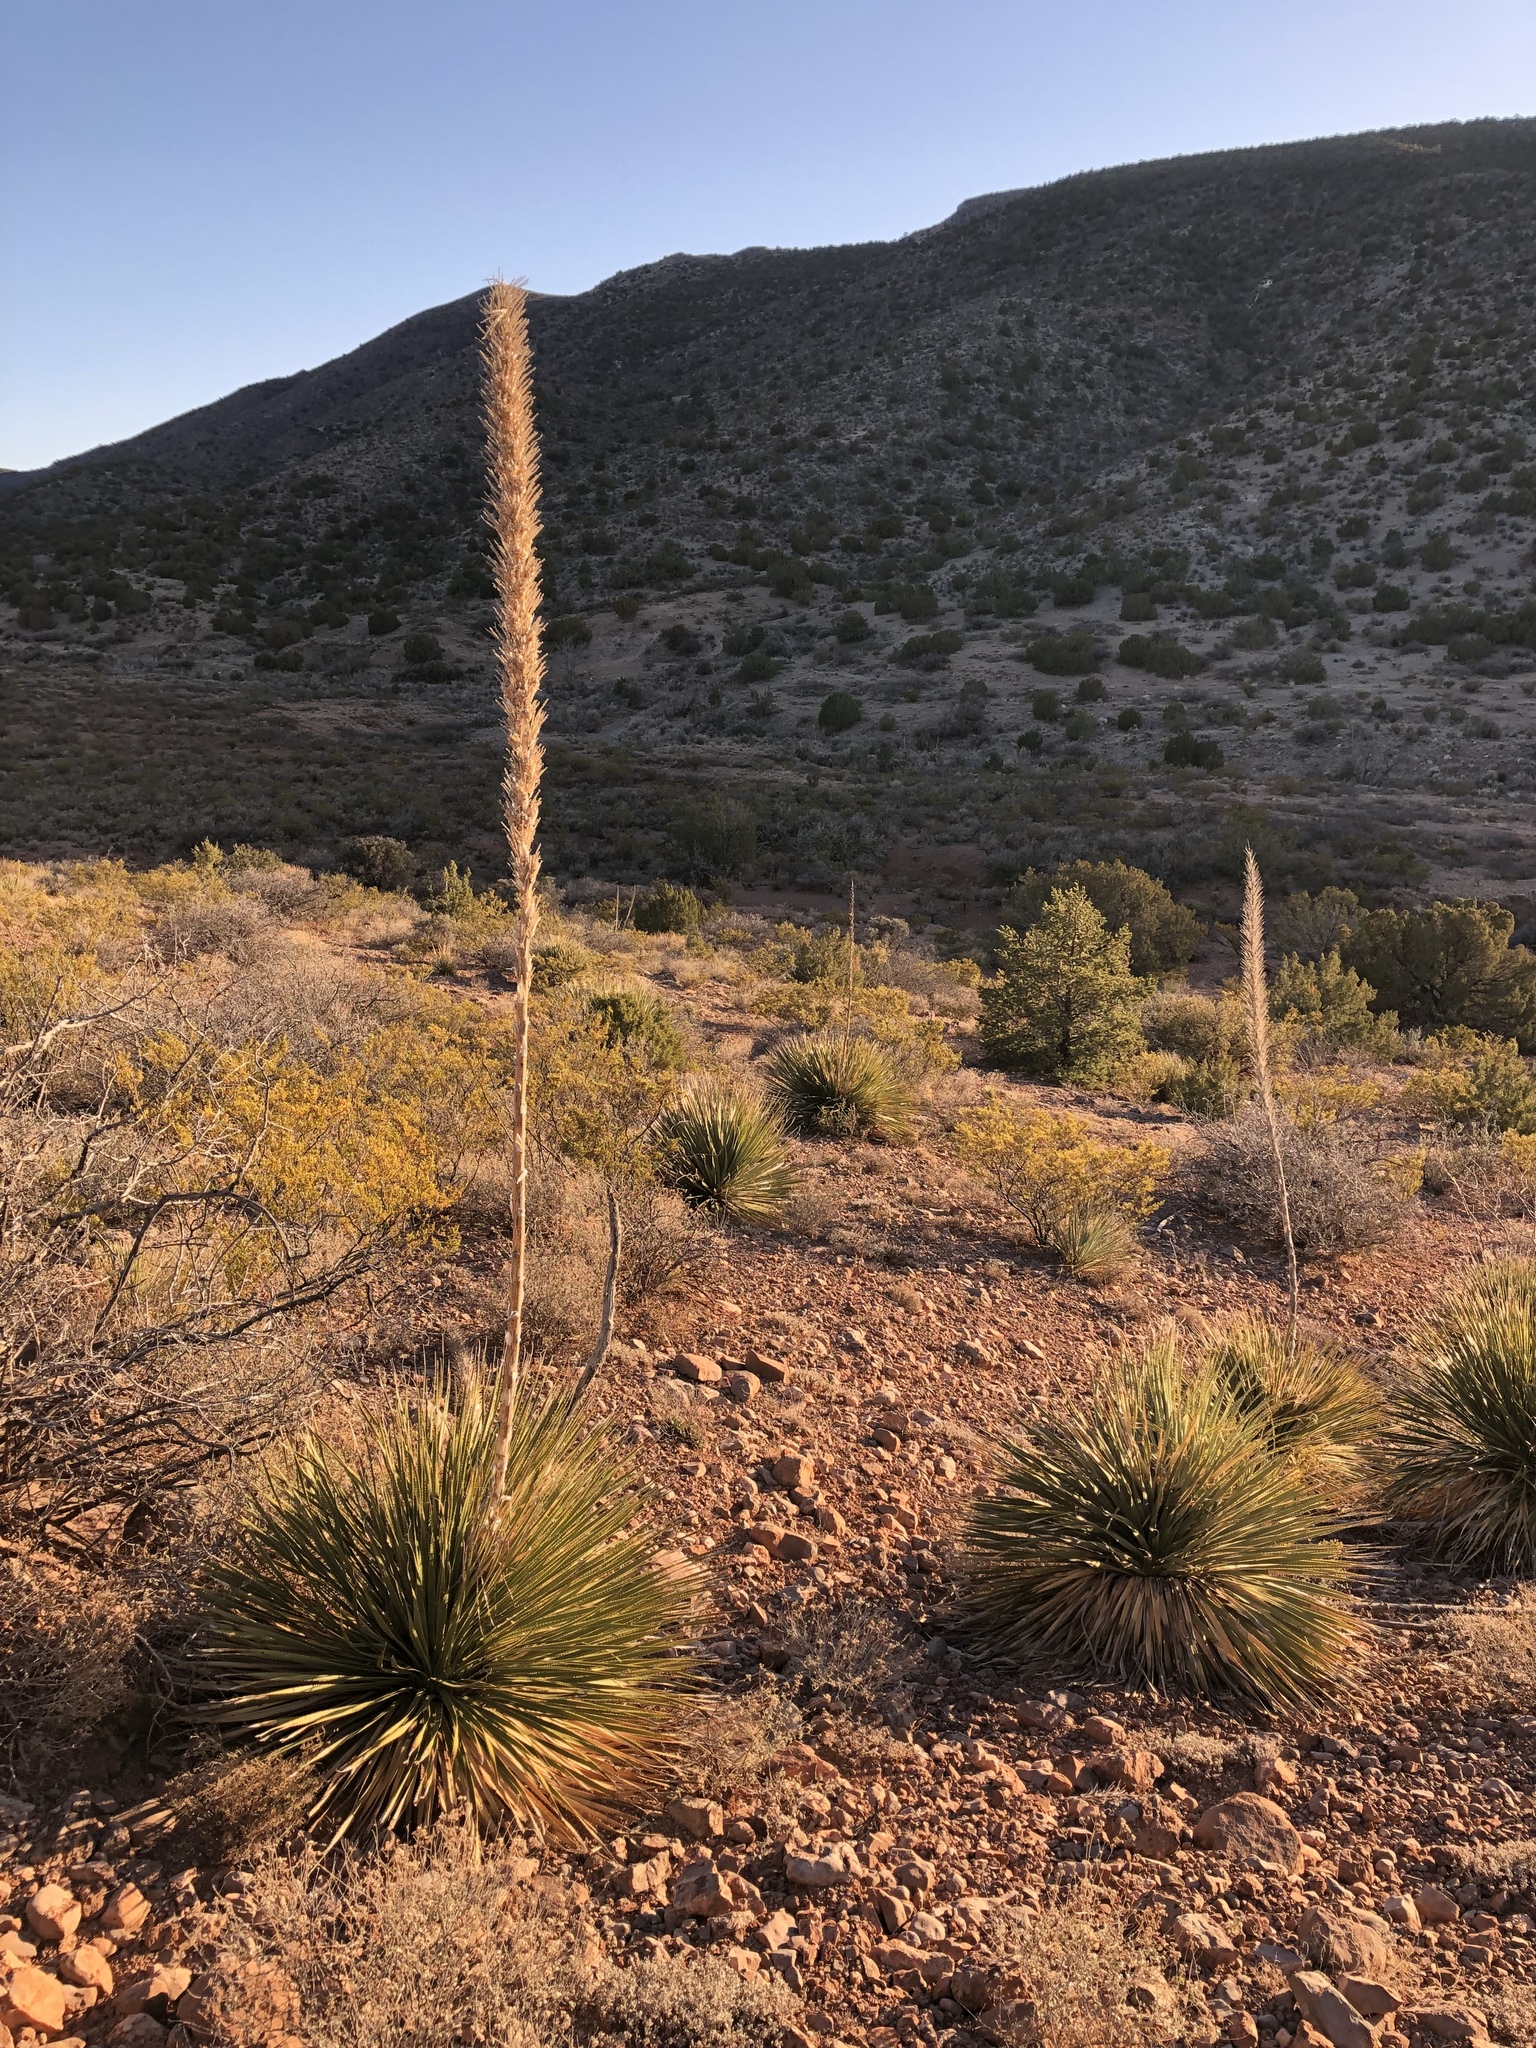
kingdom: Plantae
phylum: Tracheophyta
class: Liliopsida
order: Asparagales
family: Asparagaceae
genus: Dasylirion
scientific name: Dasylirion wheeleri
